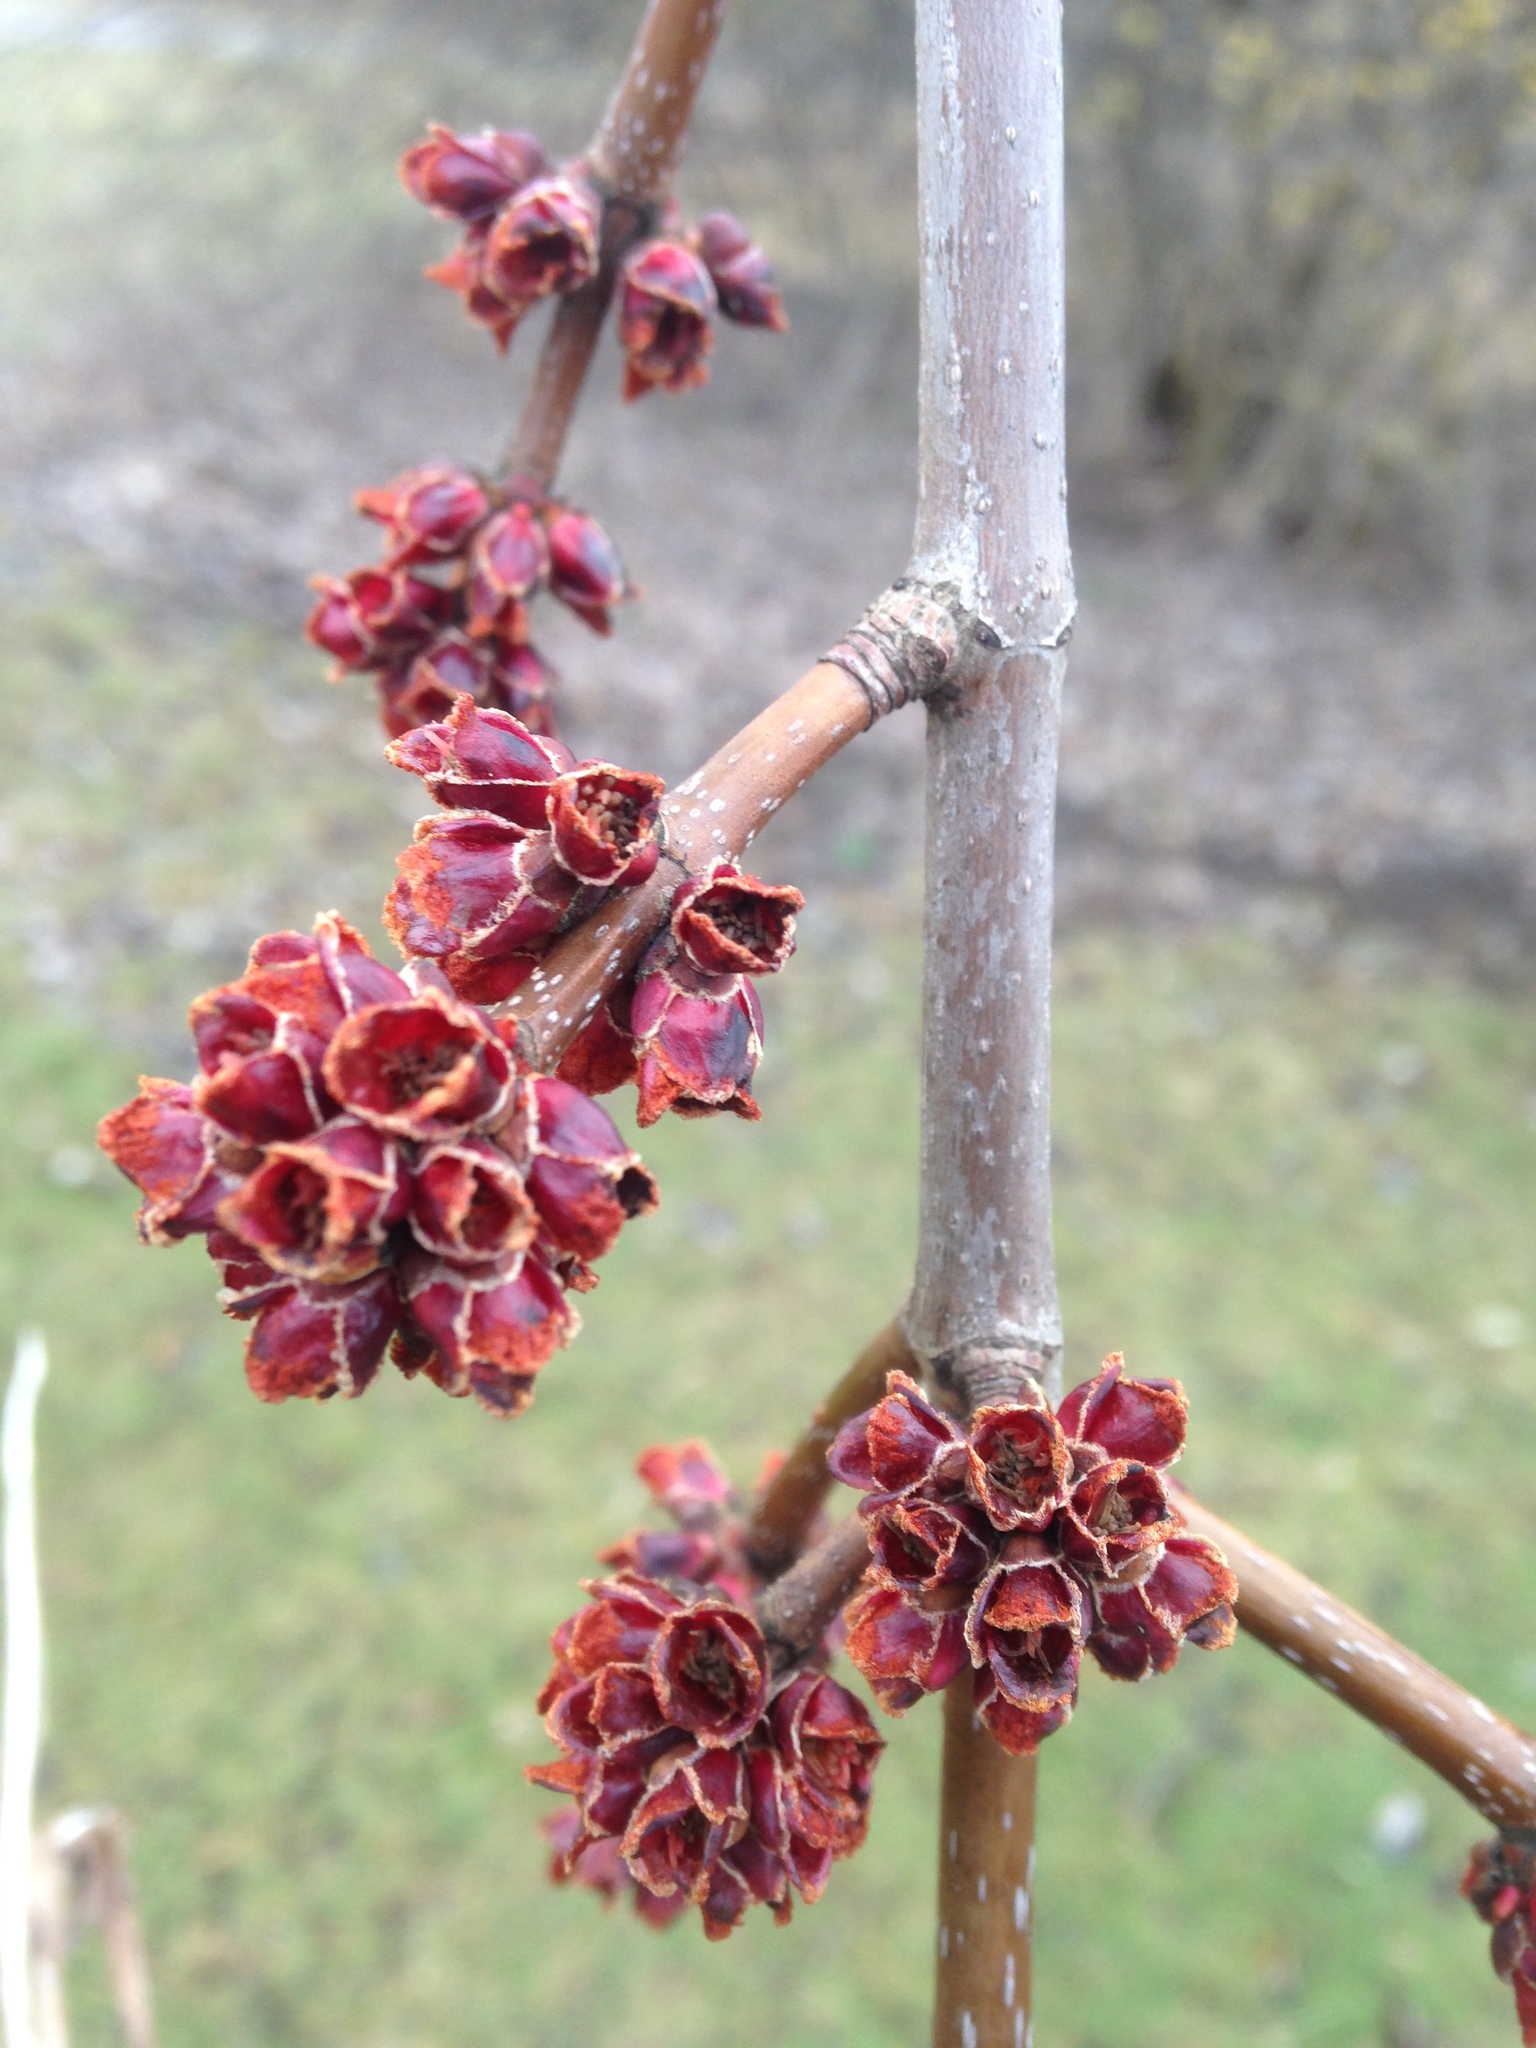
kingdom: Plantae
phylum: Tracheophyta
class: Magnoliopsida
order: Sapindales
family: Sapindaceae
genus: Acer
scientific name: Acer rubrum
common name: Red maple
